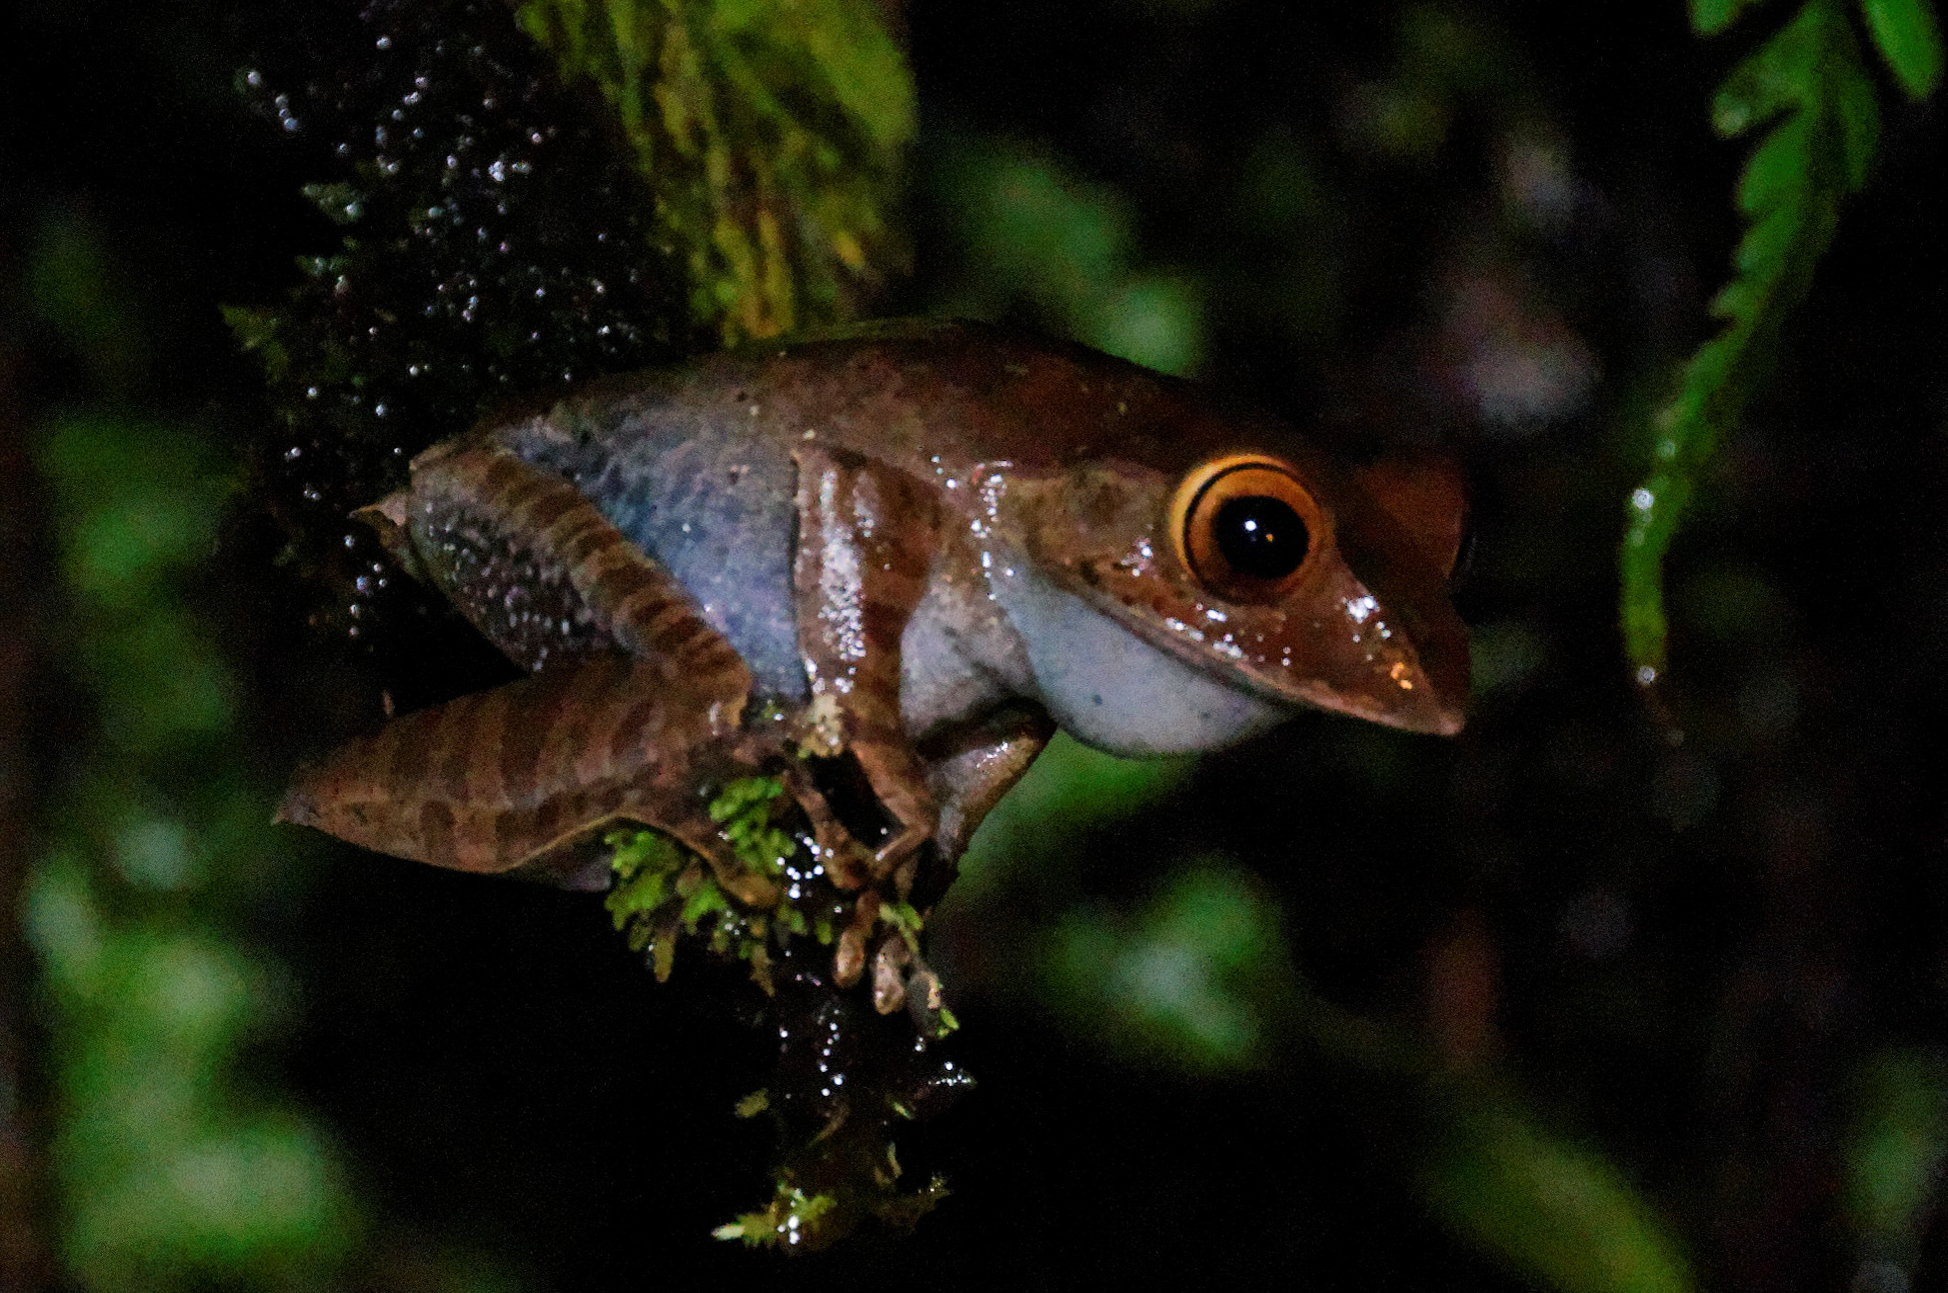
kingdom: Animalia
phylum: Chordata
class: Amphibia
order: Anura
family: Mantellidae
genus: Boophis
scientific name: Boophis madagascariensis
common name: Madagascar bright-eyed frog
